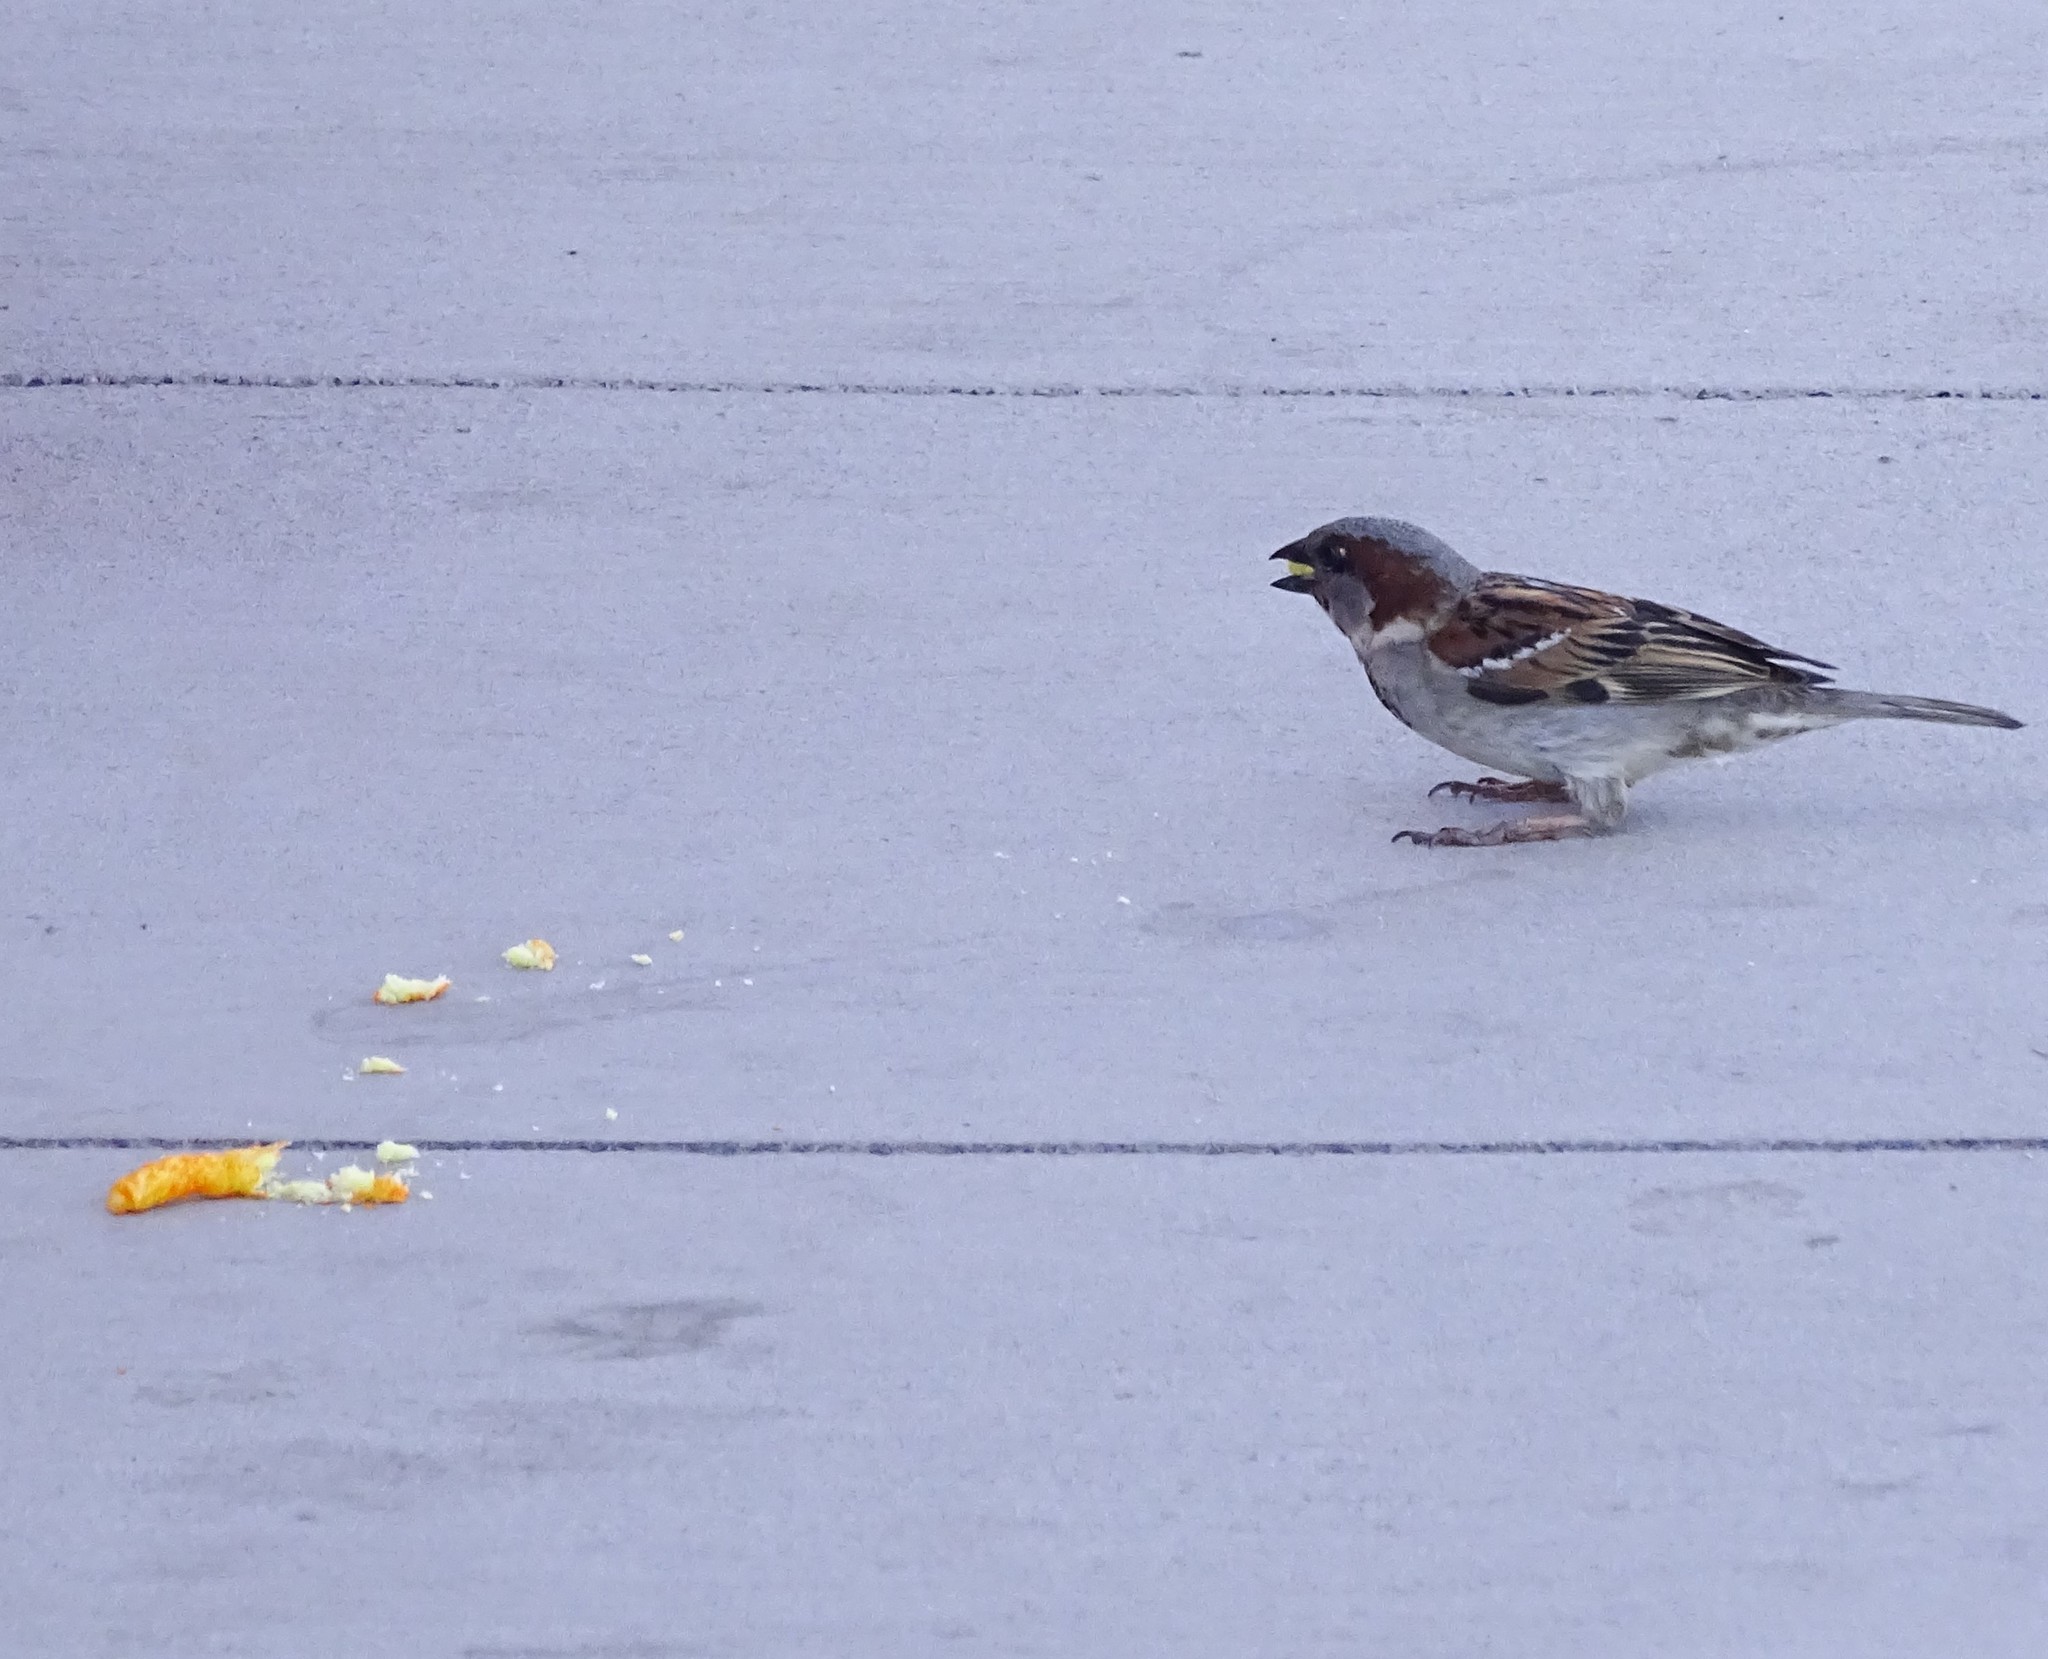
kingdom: Animalia
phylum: Chordata
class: Aves
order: Passeriformes
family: Passeridae
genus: Passer
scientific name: Passer domesticus
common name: House sparrow
